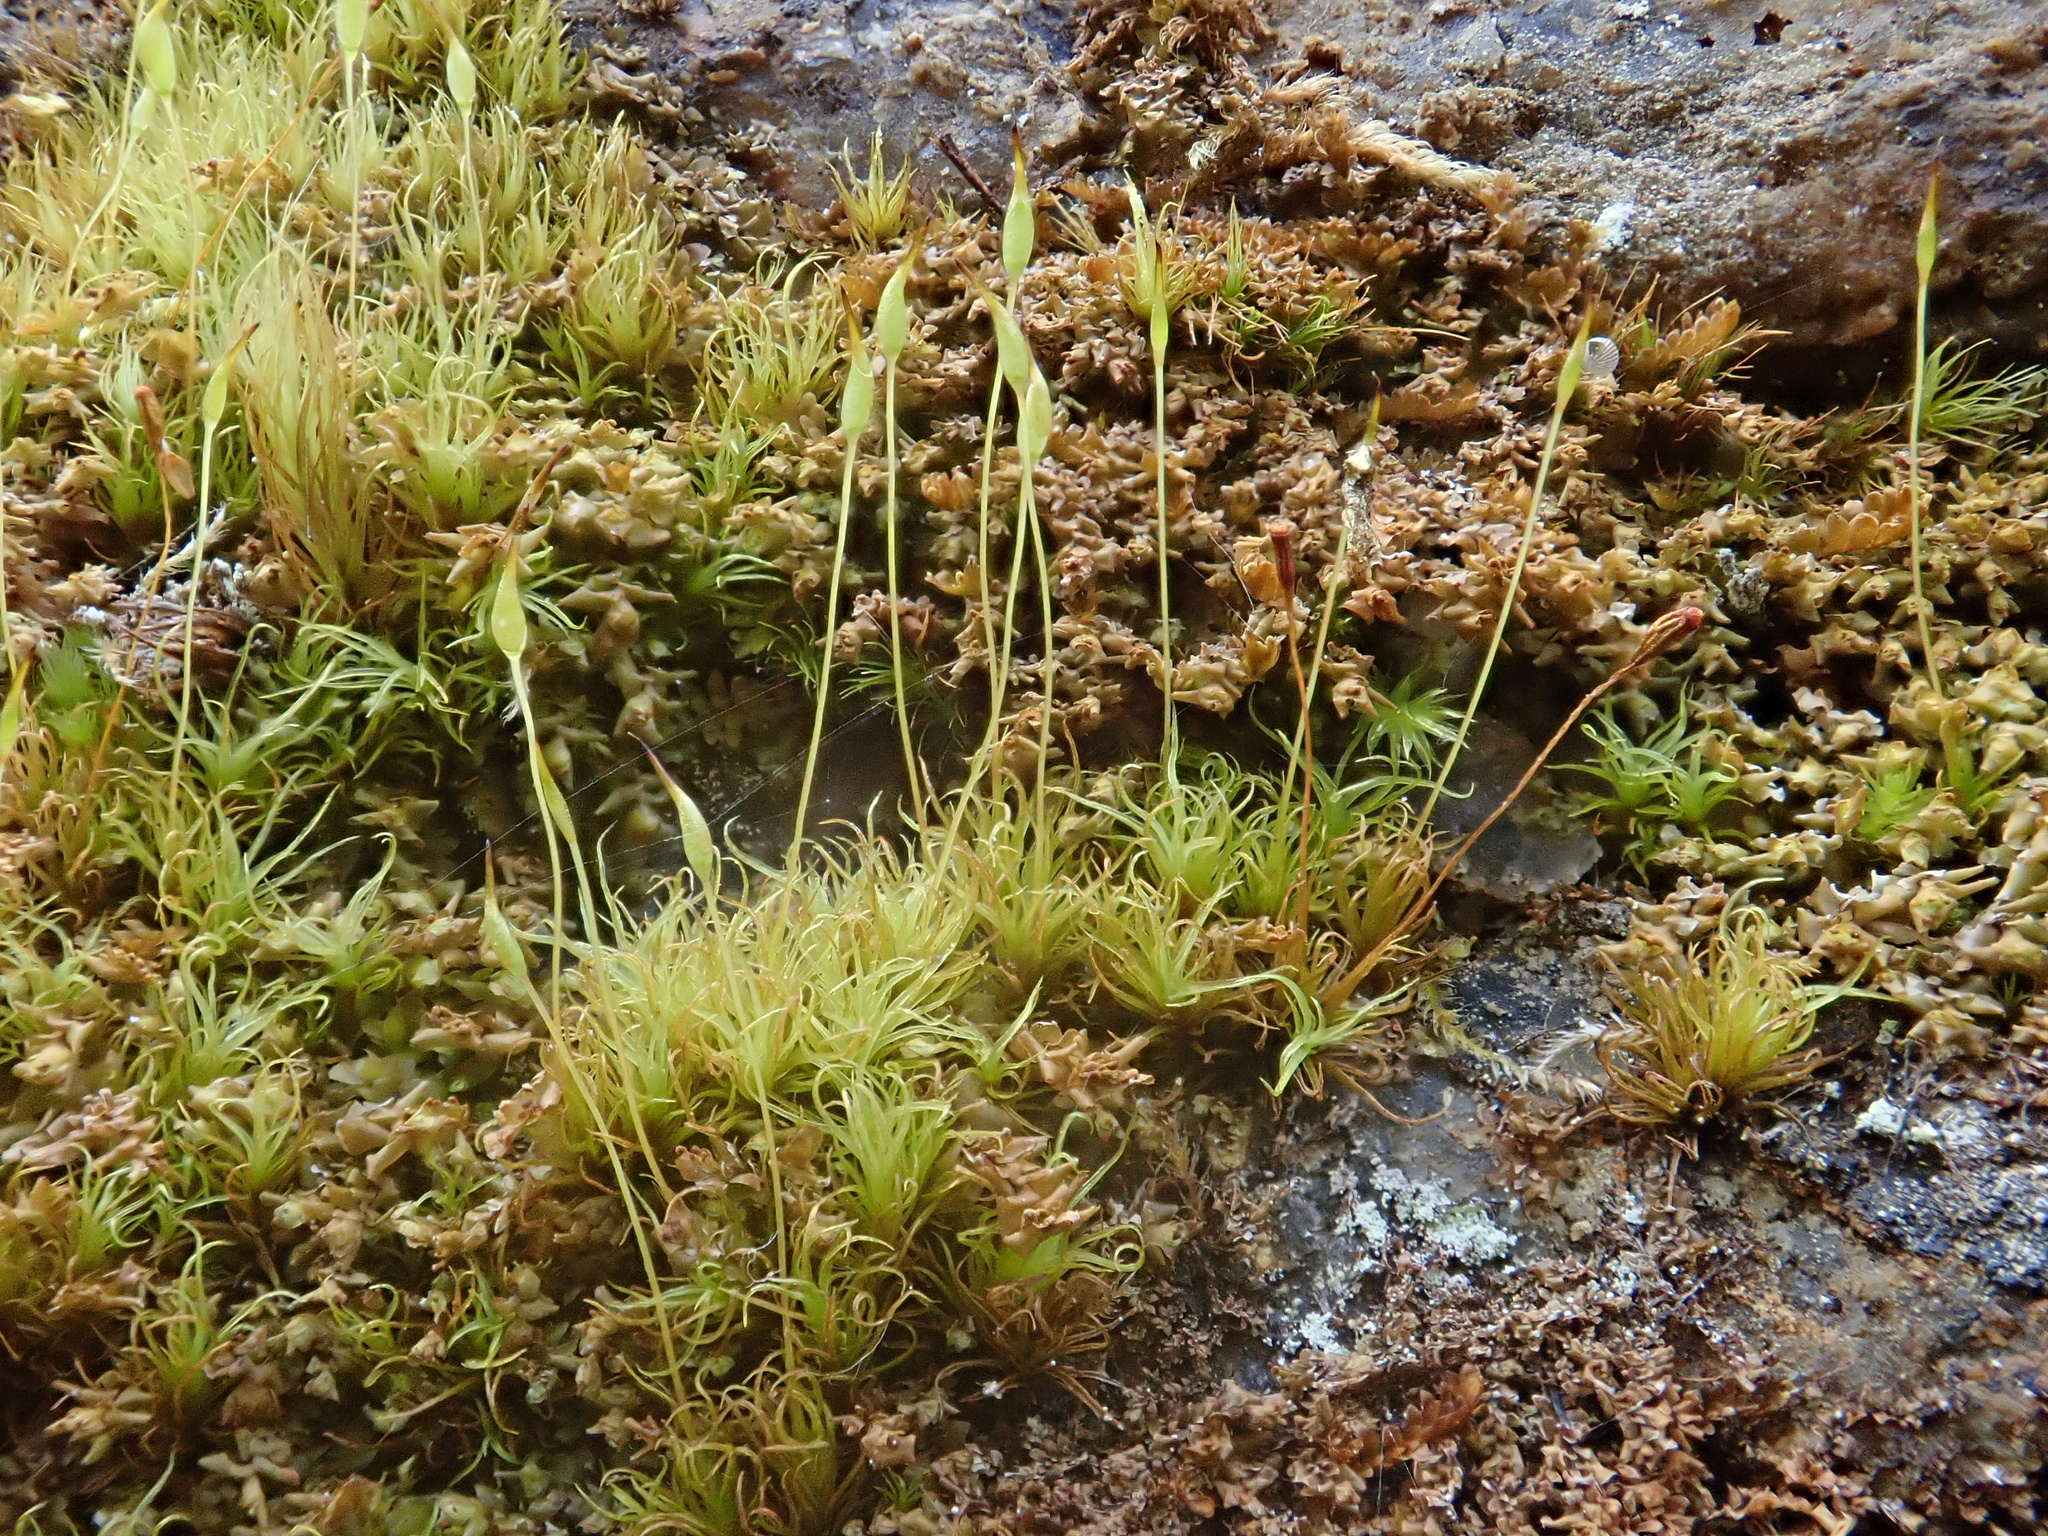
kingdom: Plantae
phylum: Bryophyta
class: Bryopsida
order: Dicranales
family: Rhabdoweisiaceae
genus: Cynodontium
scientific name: Cynodontium polycarpon
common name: Many-fruited dogtooth moss
